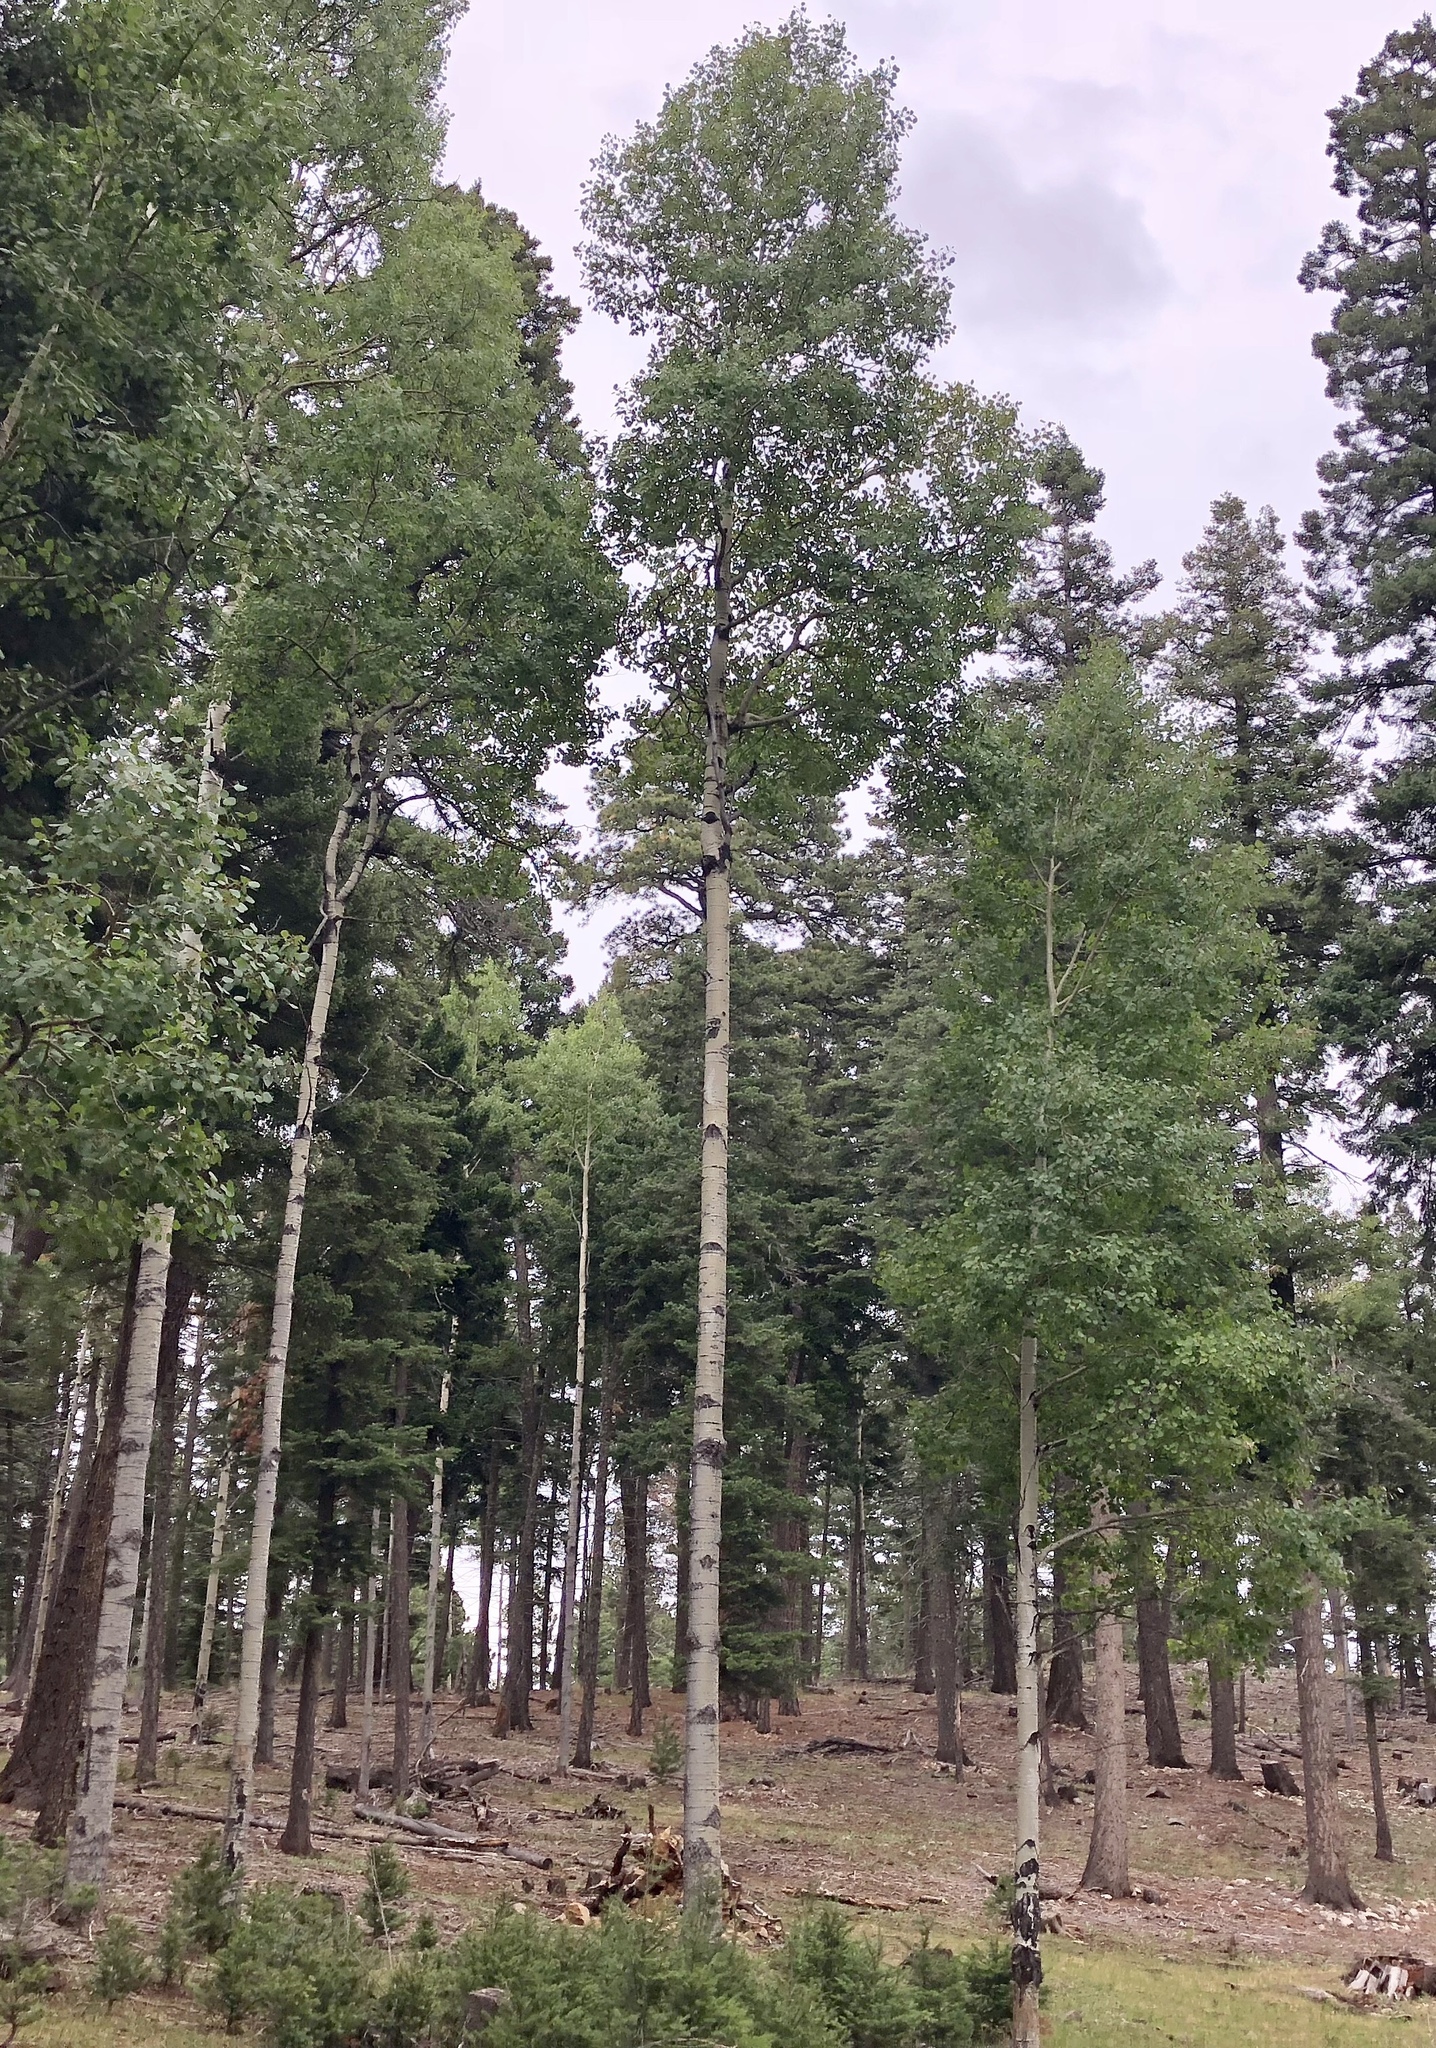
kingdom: Plantae
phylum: Tracheophyta
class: Magnoliopsida
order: Malpighiales
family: Salicaceae
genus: Populus
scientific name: Populus tremuloides
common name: Quaking aspen
